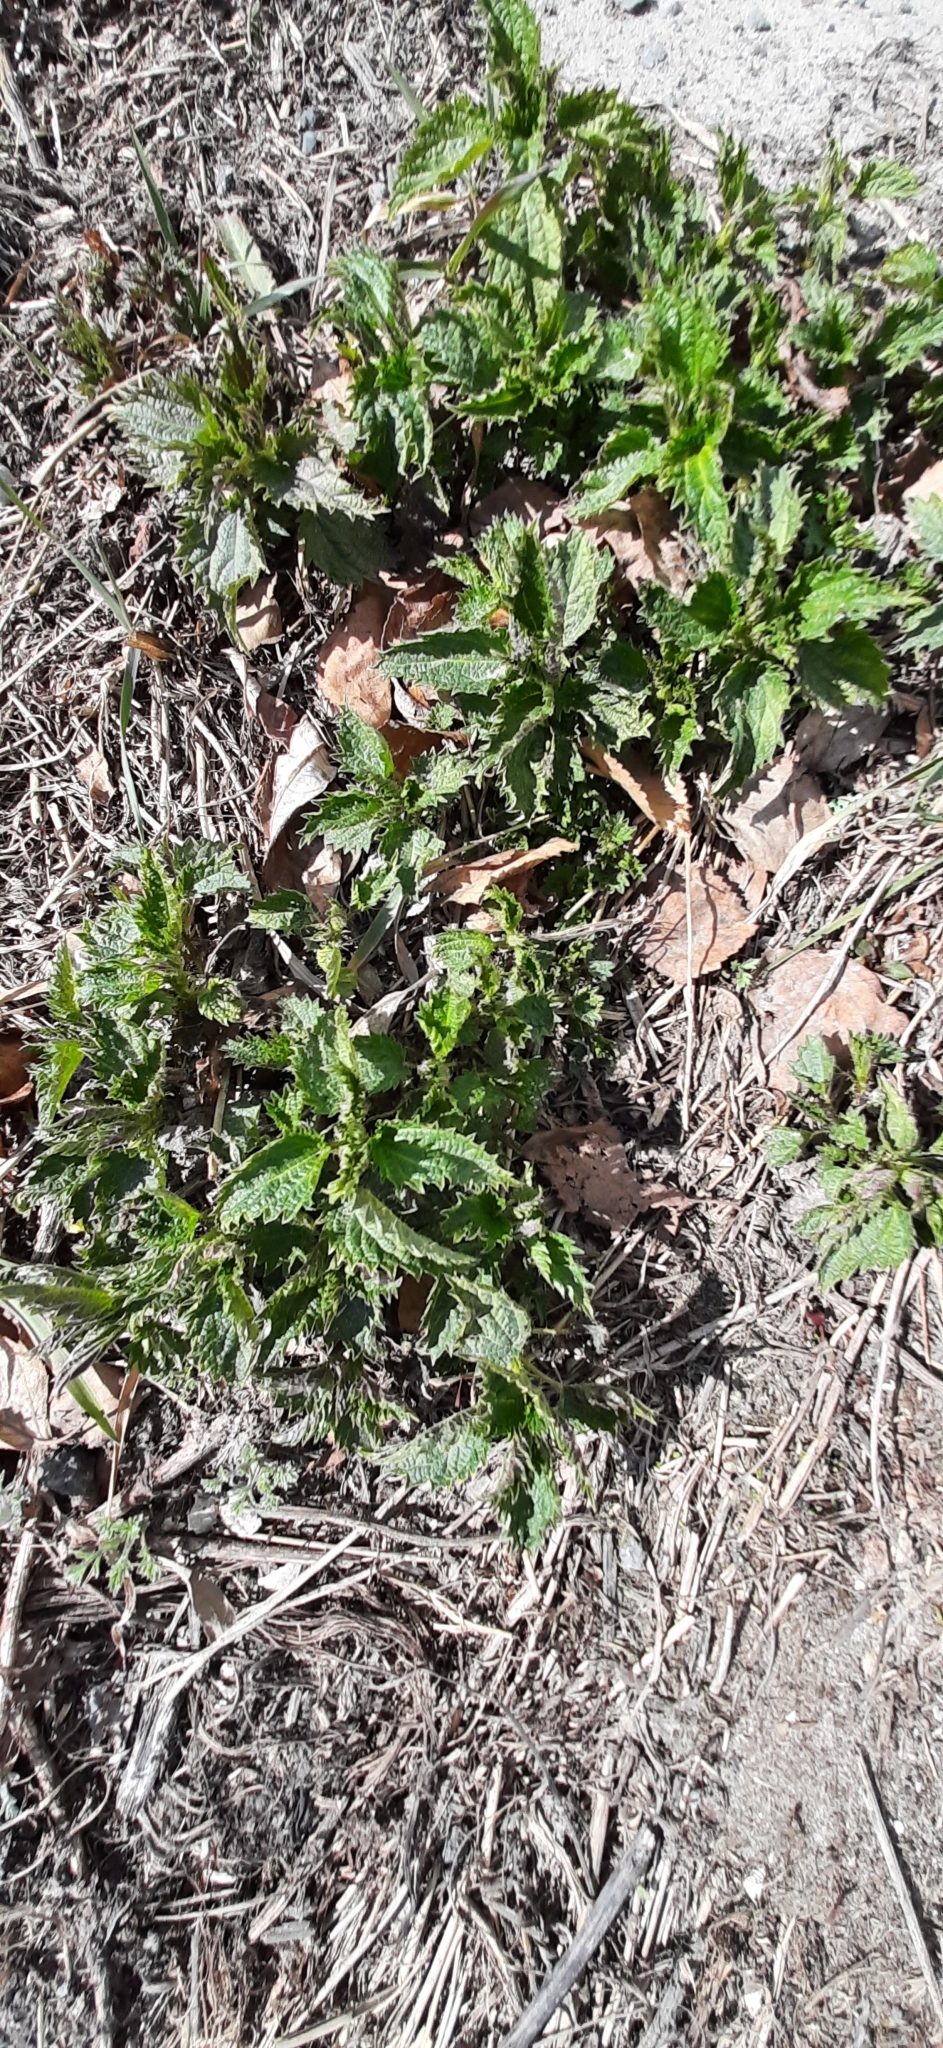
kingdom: Plantae
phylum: Tracheophyta
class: Magnoliopsida
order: Rosales
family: Urticaceae
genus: Urtica
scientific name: Urtica dioica
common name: Common nettle
